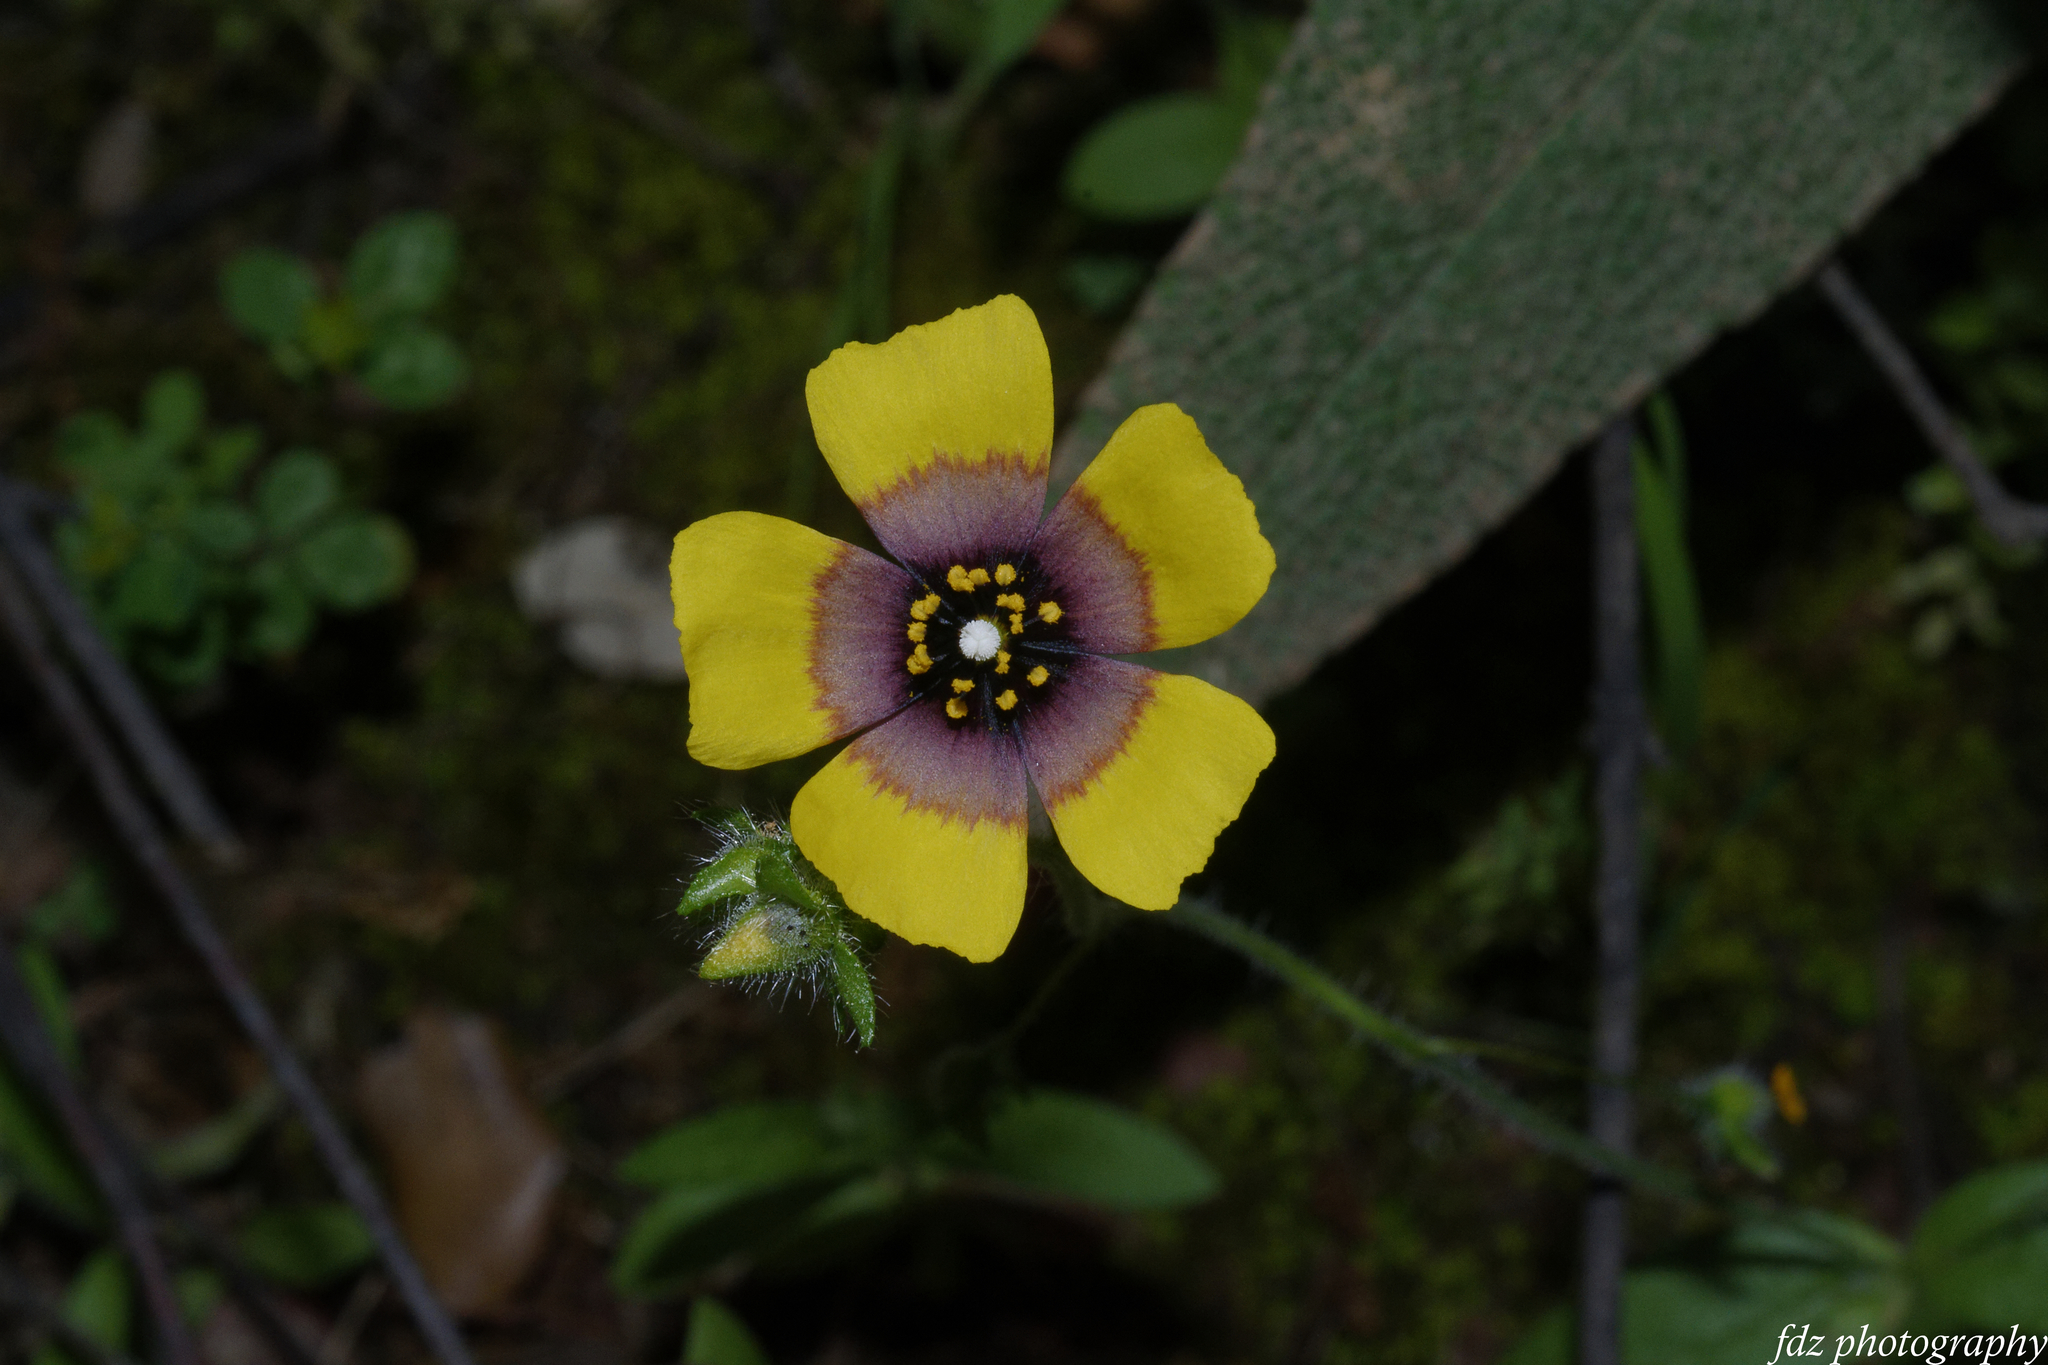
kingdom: Plantae
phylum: Tracheophyta
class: Magnoliopsida
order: Malvales
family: Cistaceae
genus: Tuberaria
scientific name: Tuberaria guttata
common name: Spotted rock-rose
